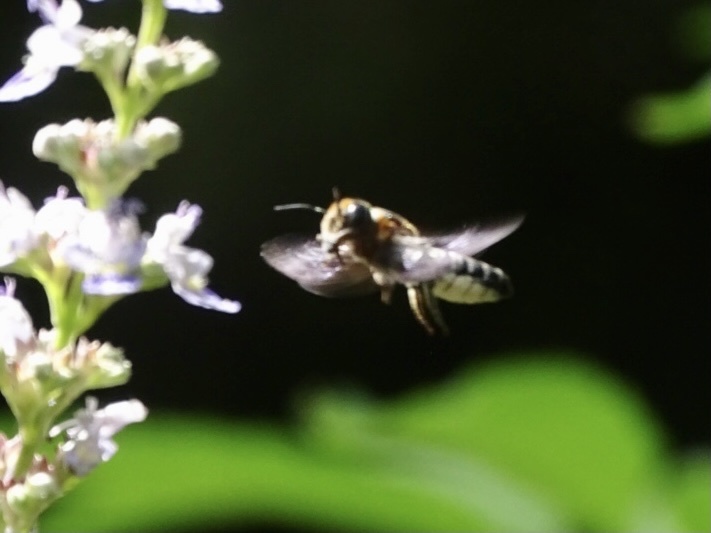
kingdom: Animalia
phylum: Arthropoda
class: Insecta
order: Hymenoptera
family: Megachilidae
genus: Megachile
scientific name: Megachile umbripennis
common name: Shadow-winged resin bee
